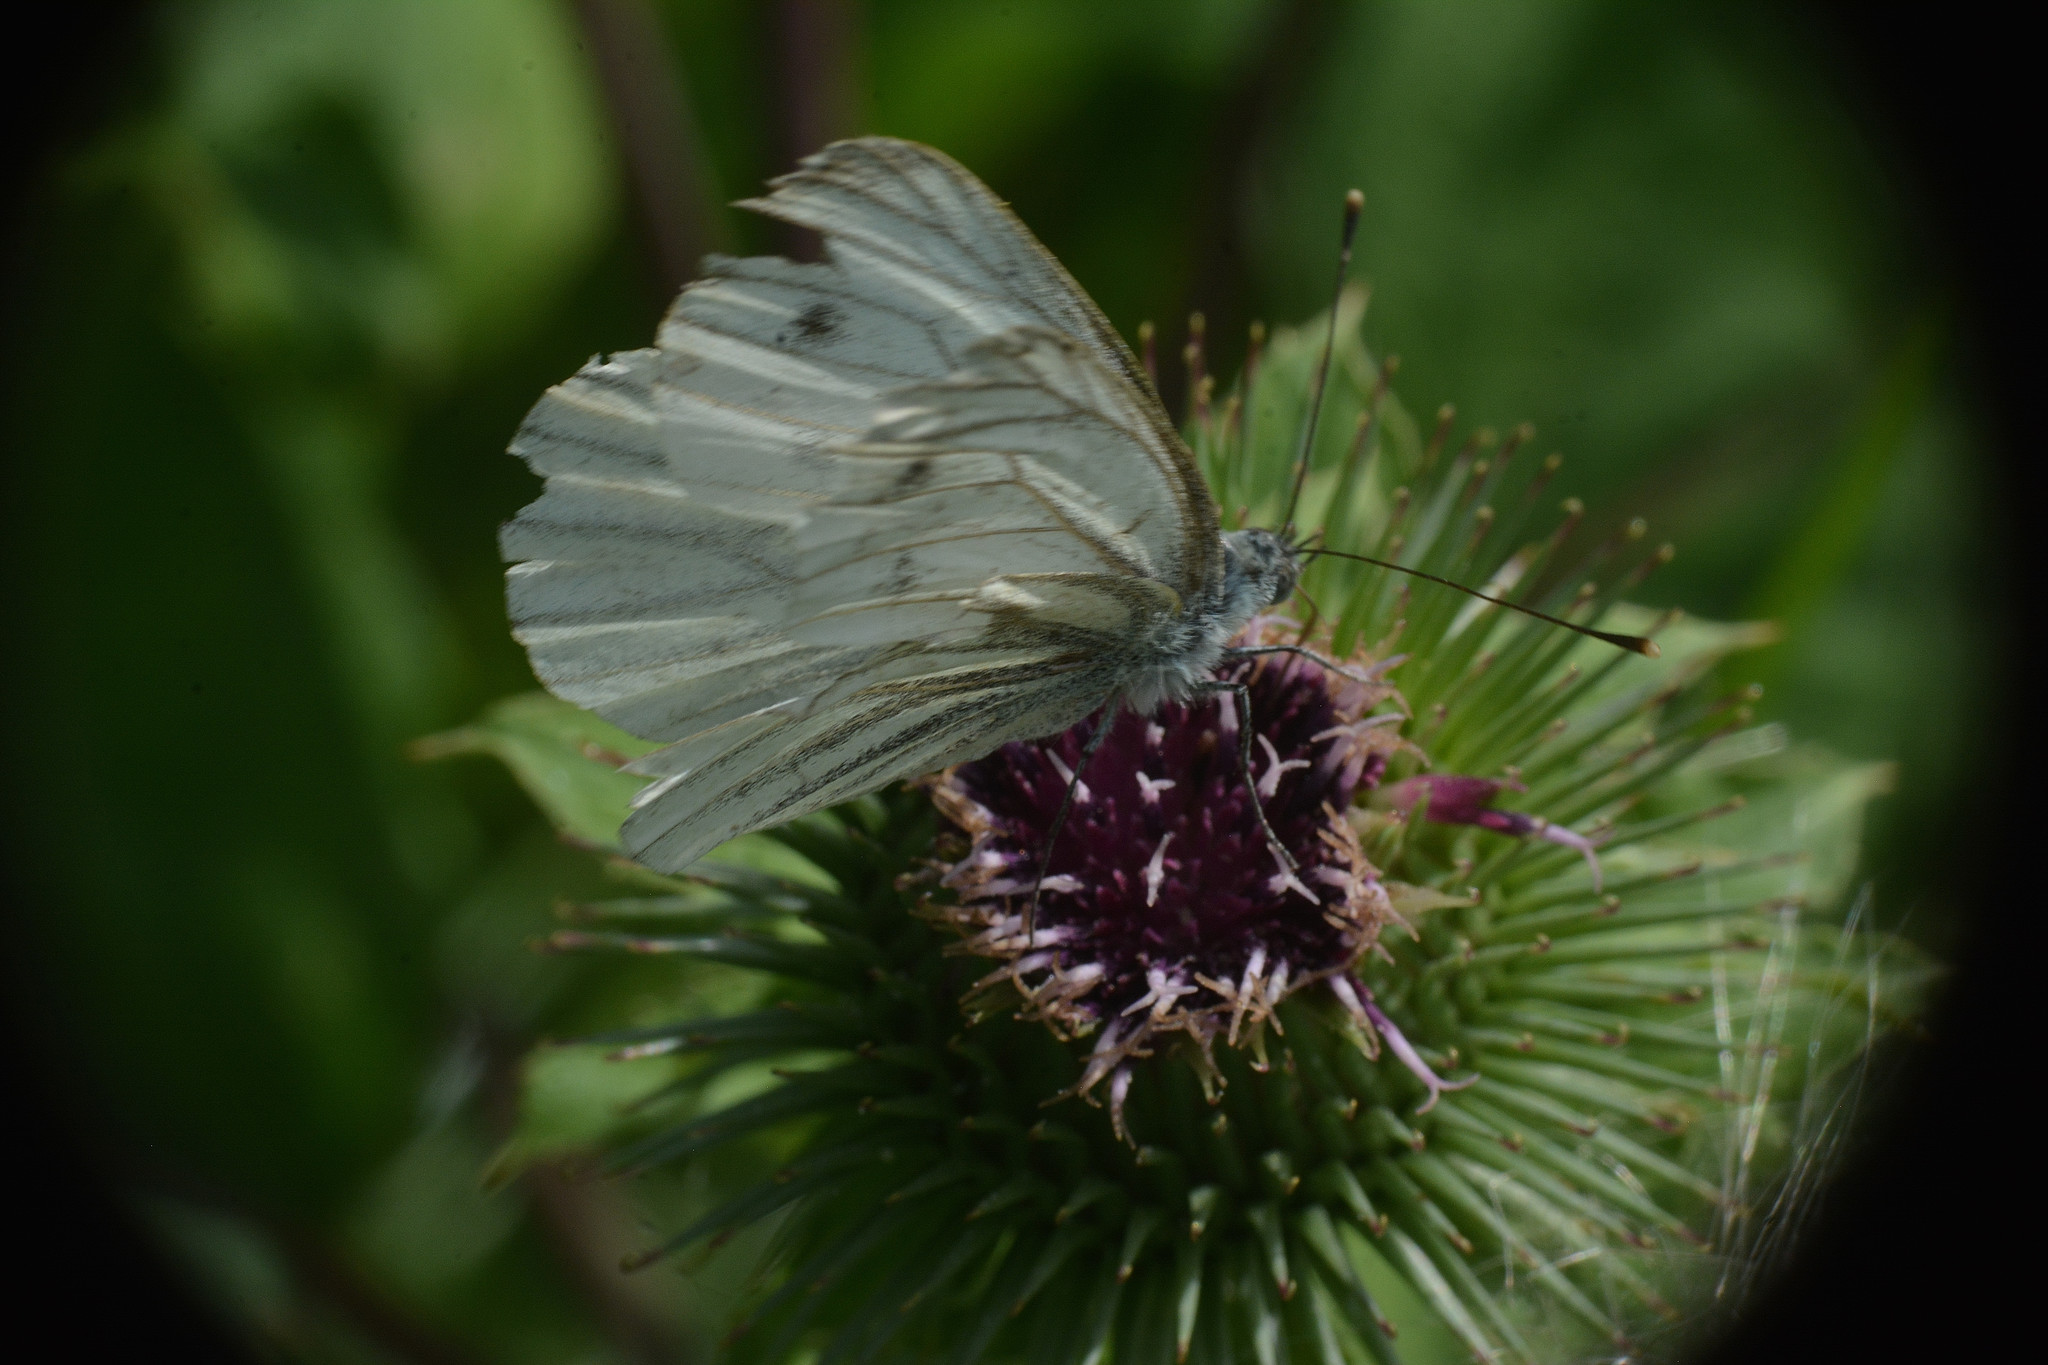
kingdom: Animalia
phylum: Arthropoda
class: Insecta
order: Lepidoptera
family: Pieridae
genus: Pieris
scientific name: Pieris napi
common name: Green-veined white
